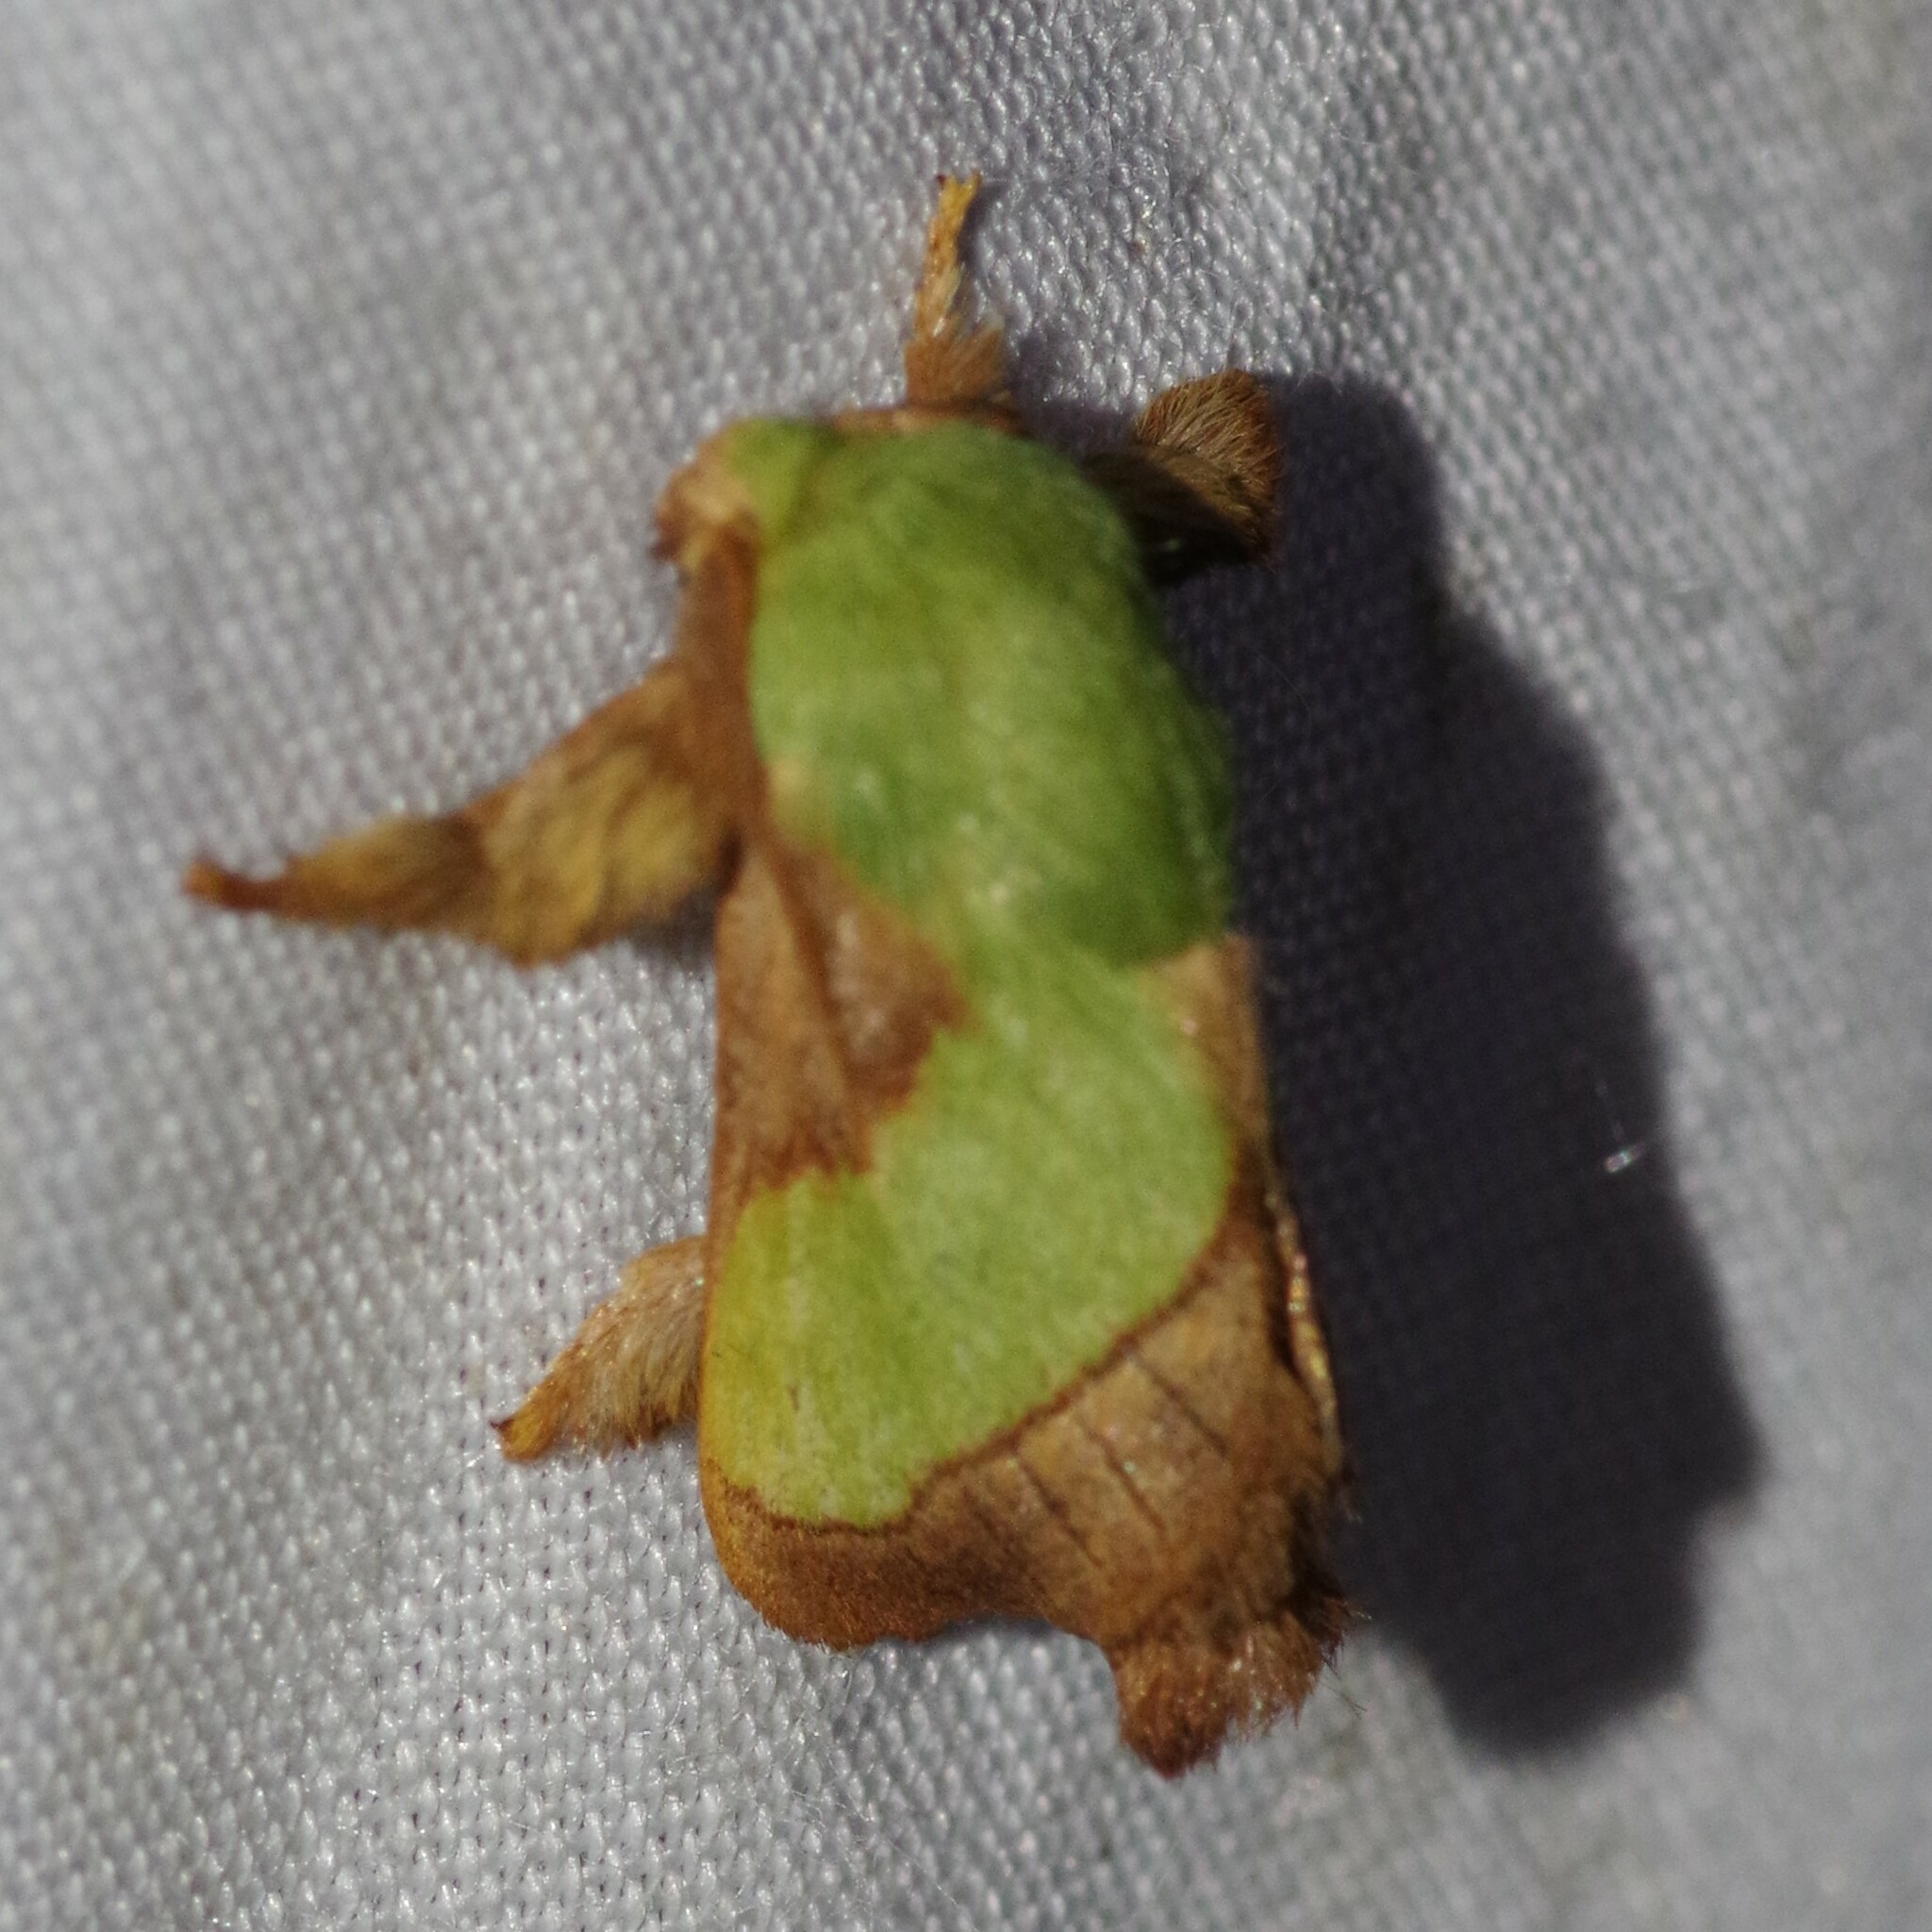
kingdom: Animalia
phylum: Arthropoda
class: Insecta
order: Lepidoptera
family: Limacodidae
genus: Parasa
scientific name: Parasa chloris
